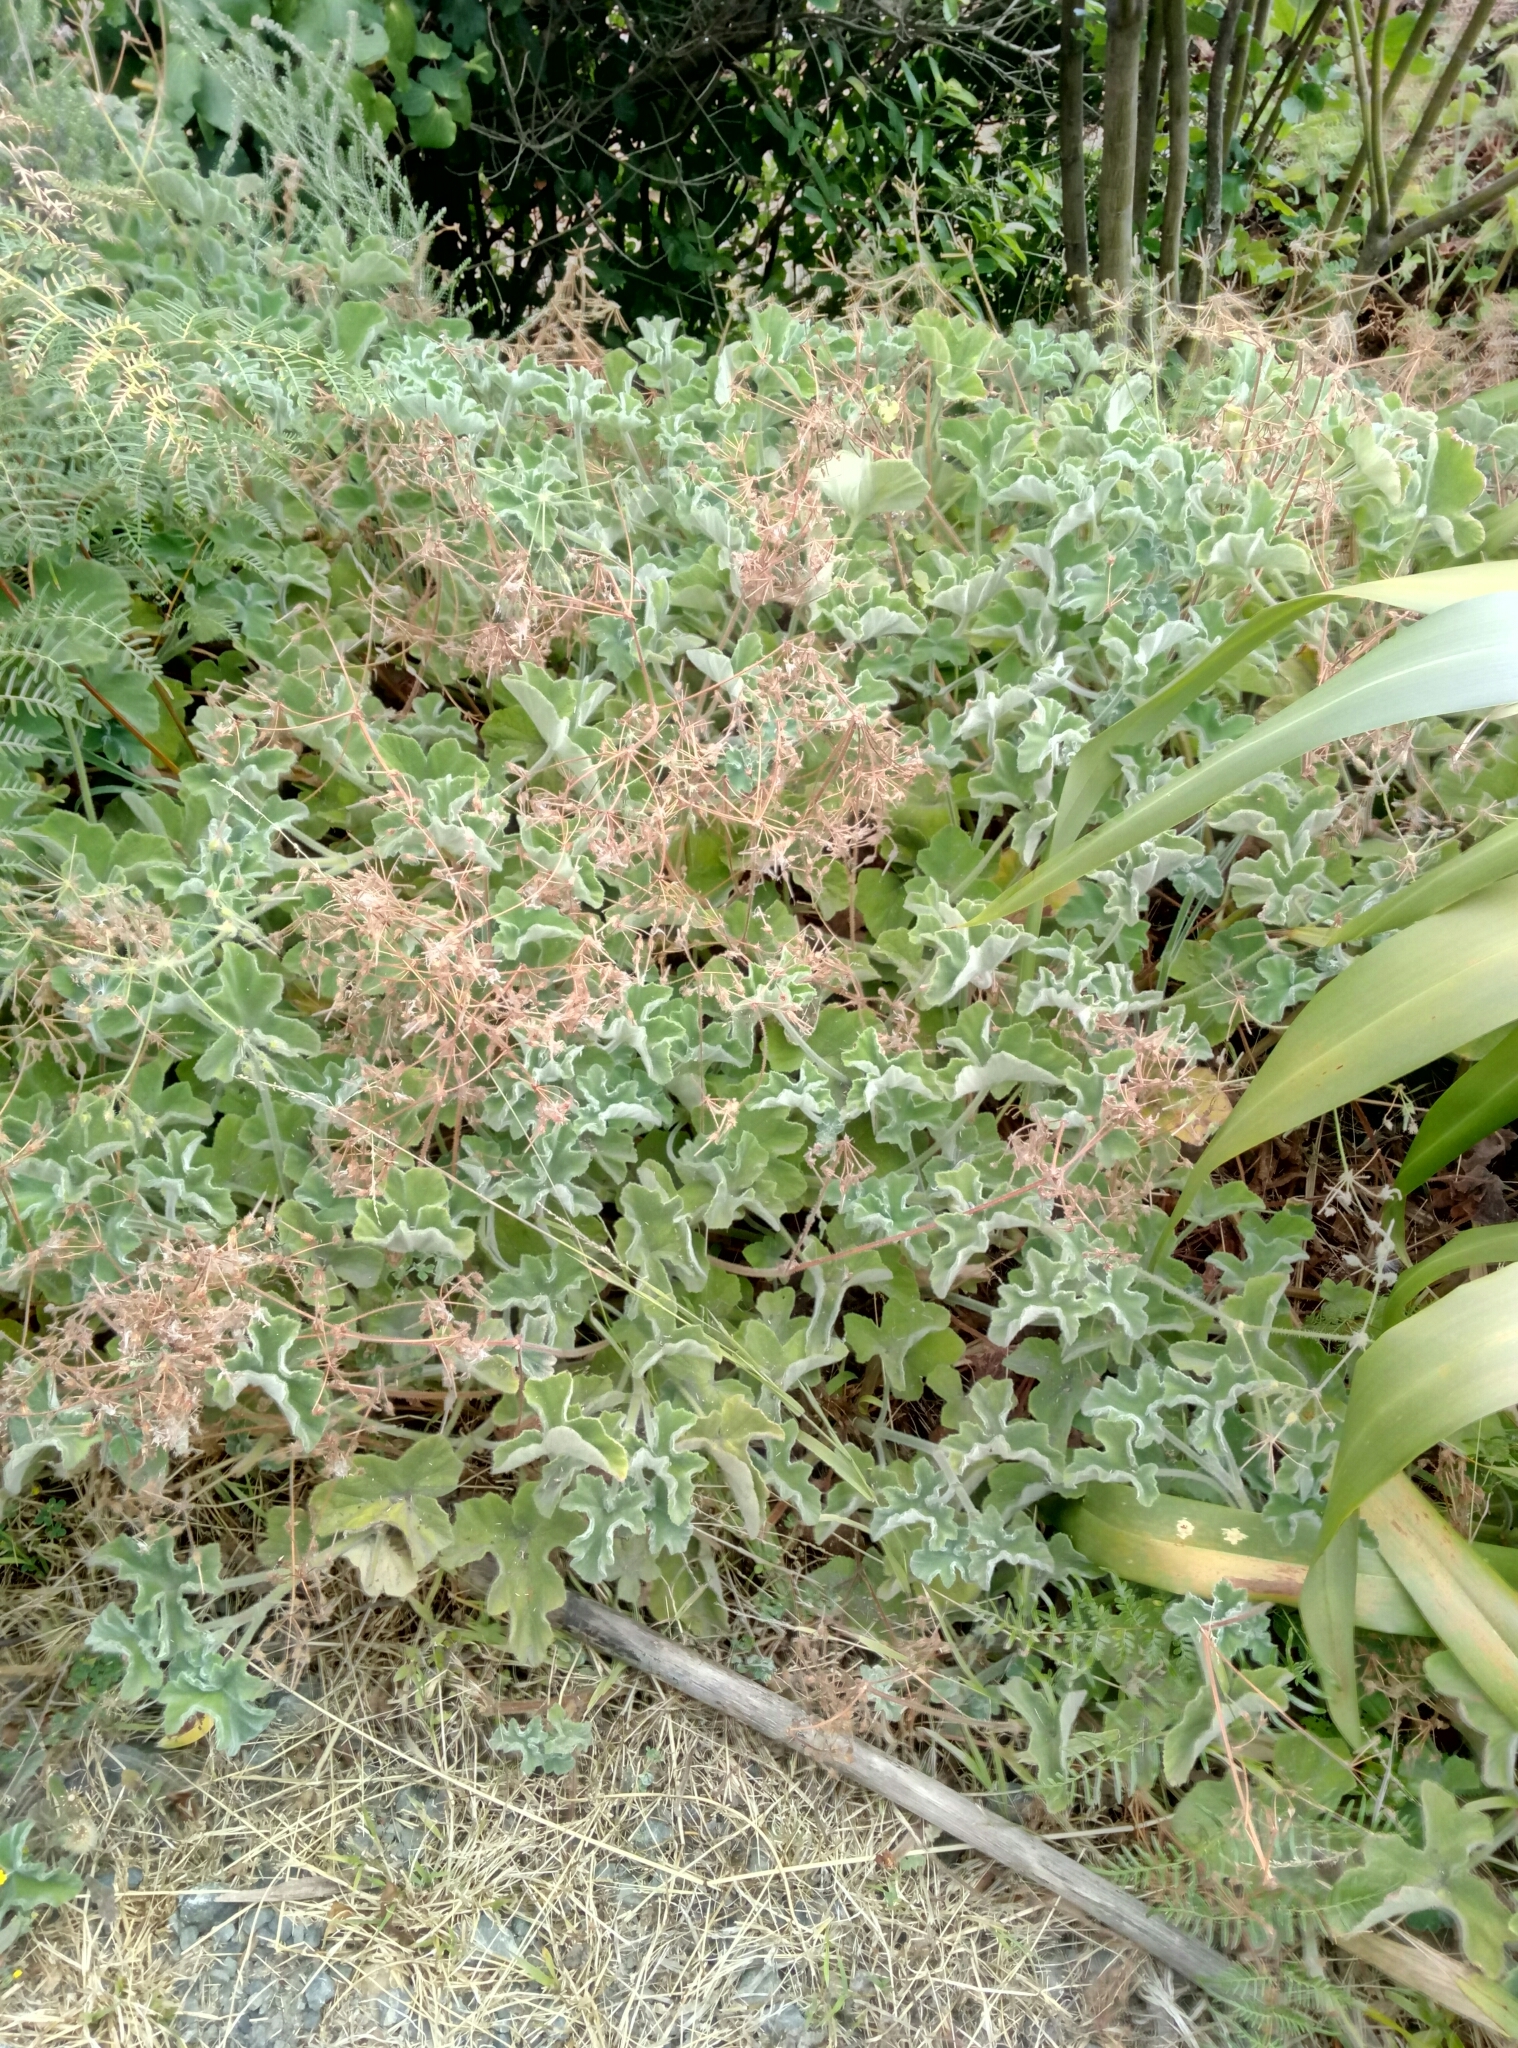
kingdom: Plantae
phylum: Tracheophyta
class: Magnoliopsida
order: Geraniales
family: Geraniaceae
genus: Pelargonium
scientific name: Pelargonium tomentosum
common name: Peppermint-scented geranium
